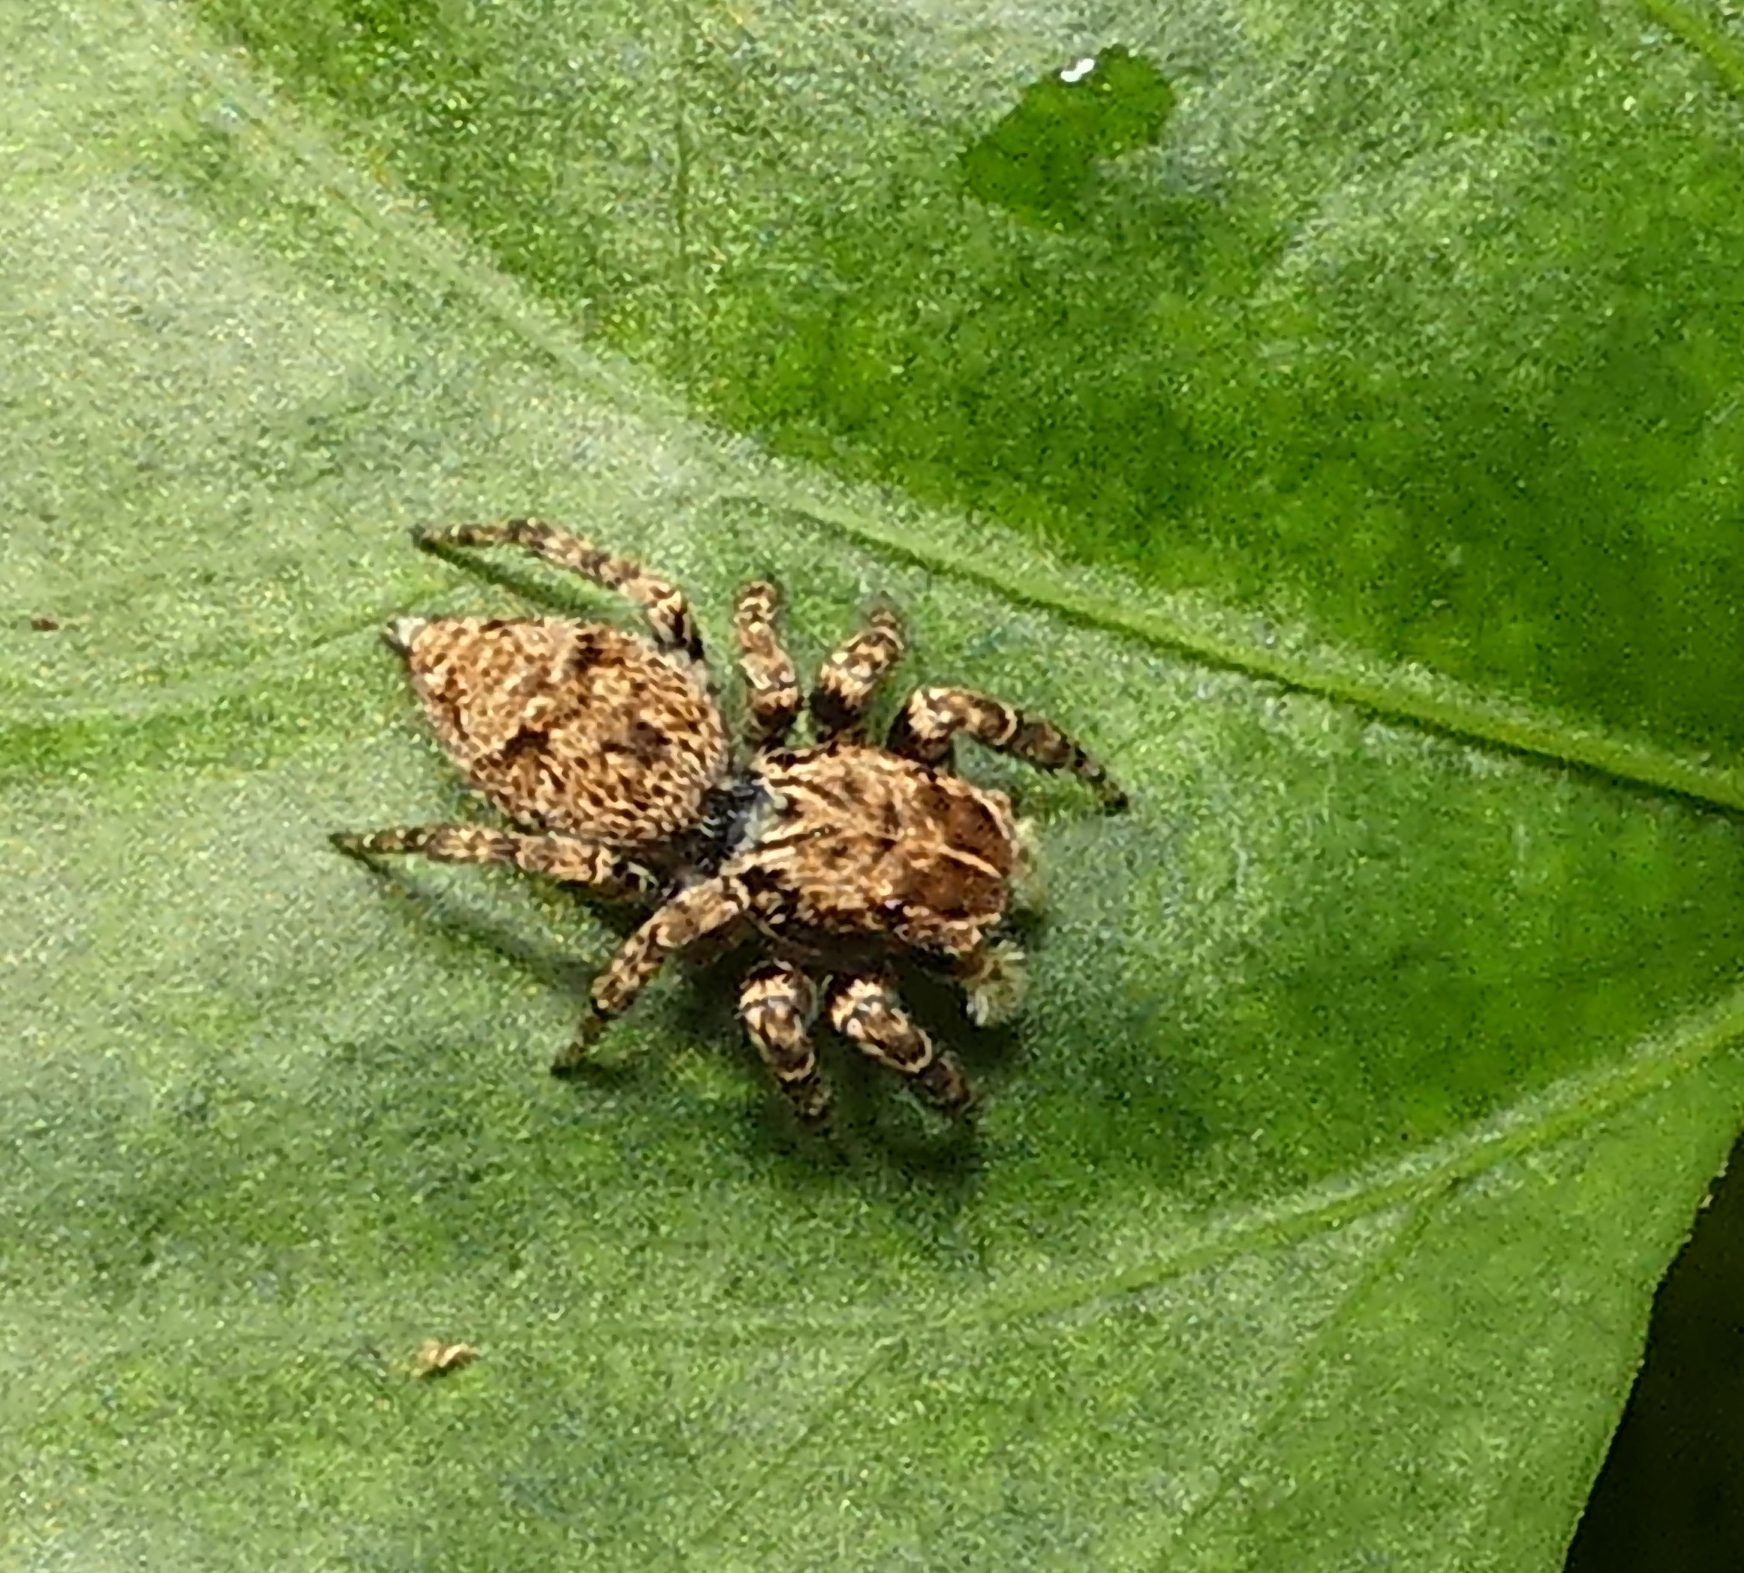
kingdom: Animalia
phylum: Arthropoda
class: Arachnida
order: Araneae
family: Salticidae
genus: Sumampattus
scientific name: Sumampattus quinqueradiatus
